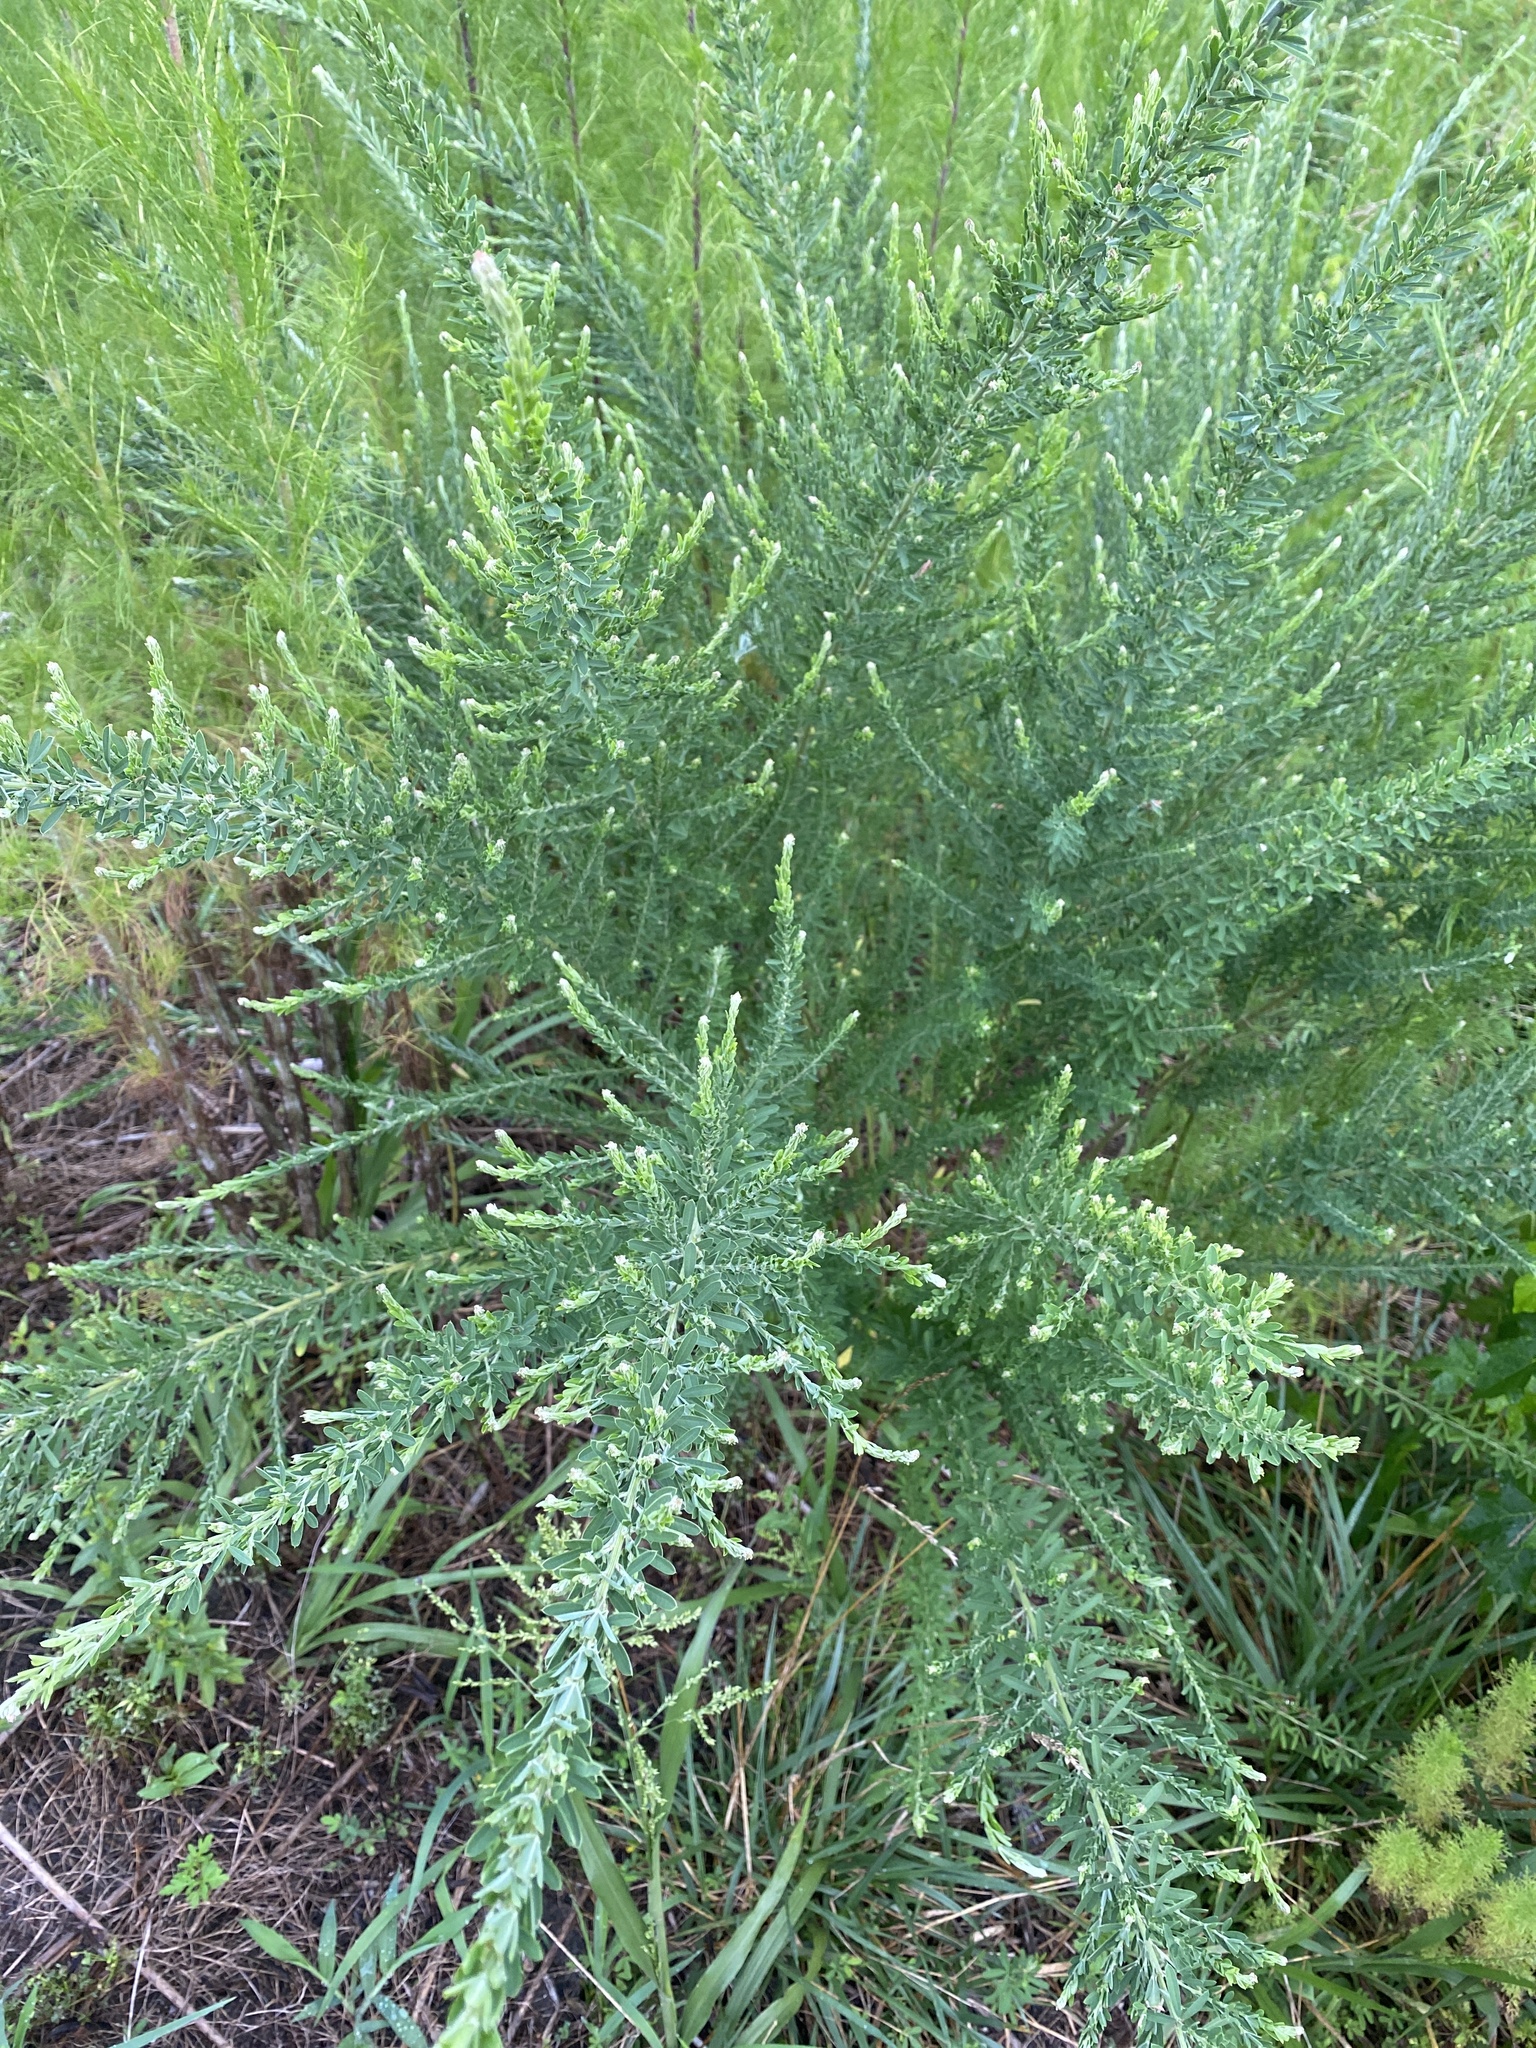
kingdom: Plantae
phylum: Tracheophyta
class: Magnoliopsida
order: Fabales
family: Fabaceae
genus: Lespedeza
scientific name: Lespedeza cuneata
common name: Chinese bush-clover
